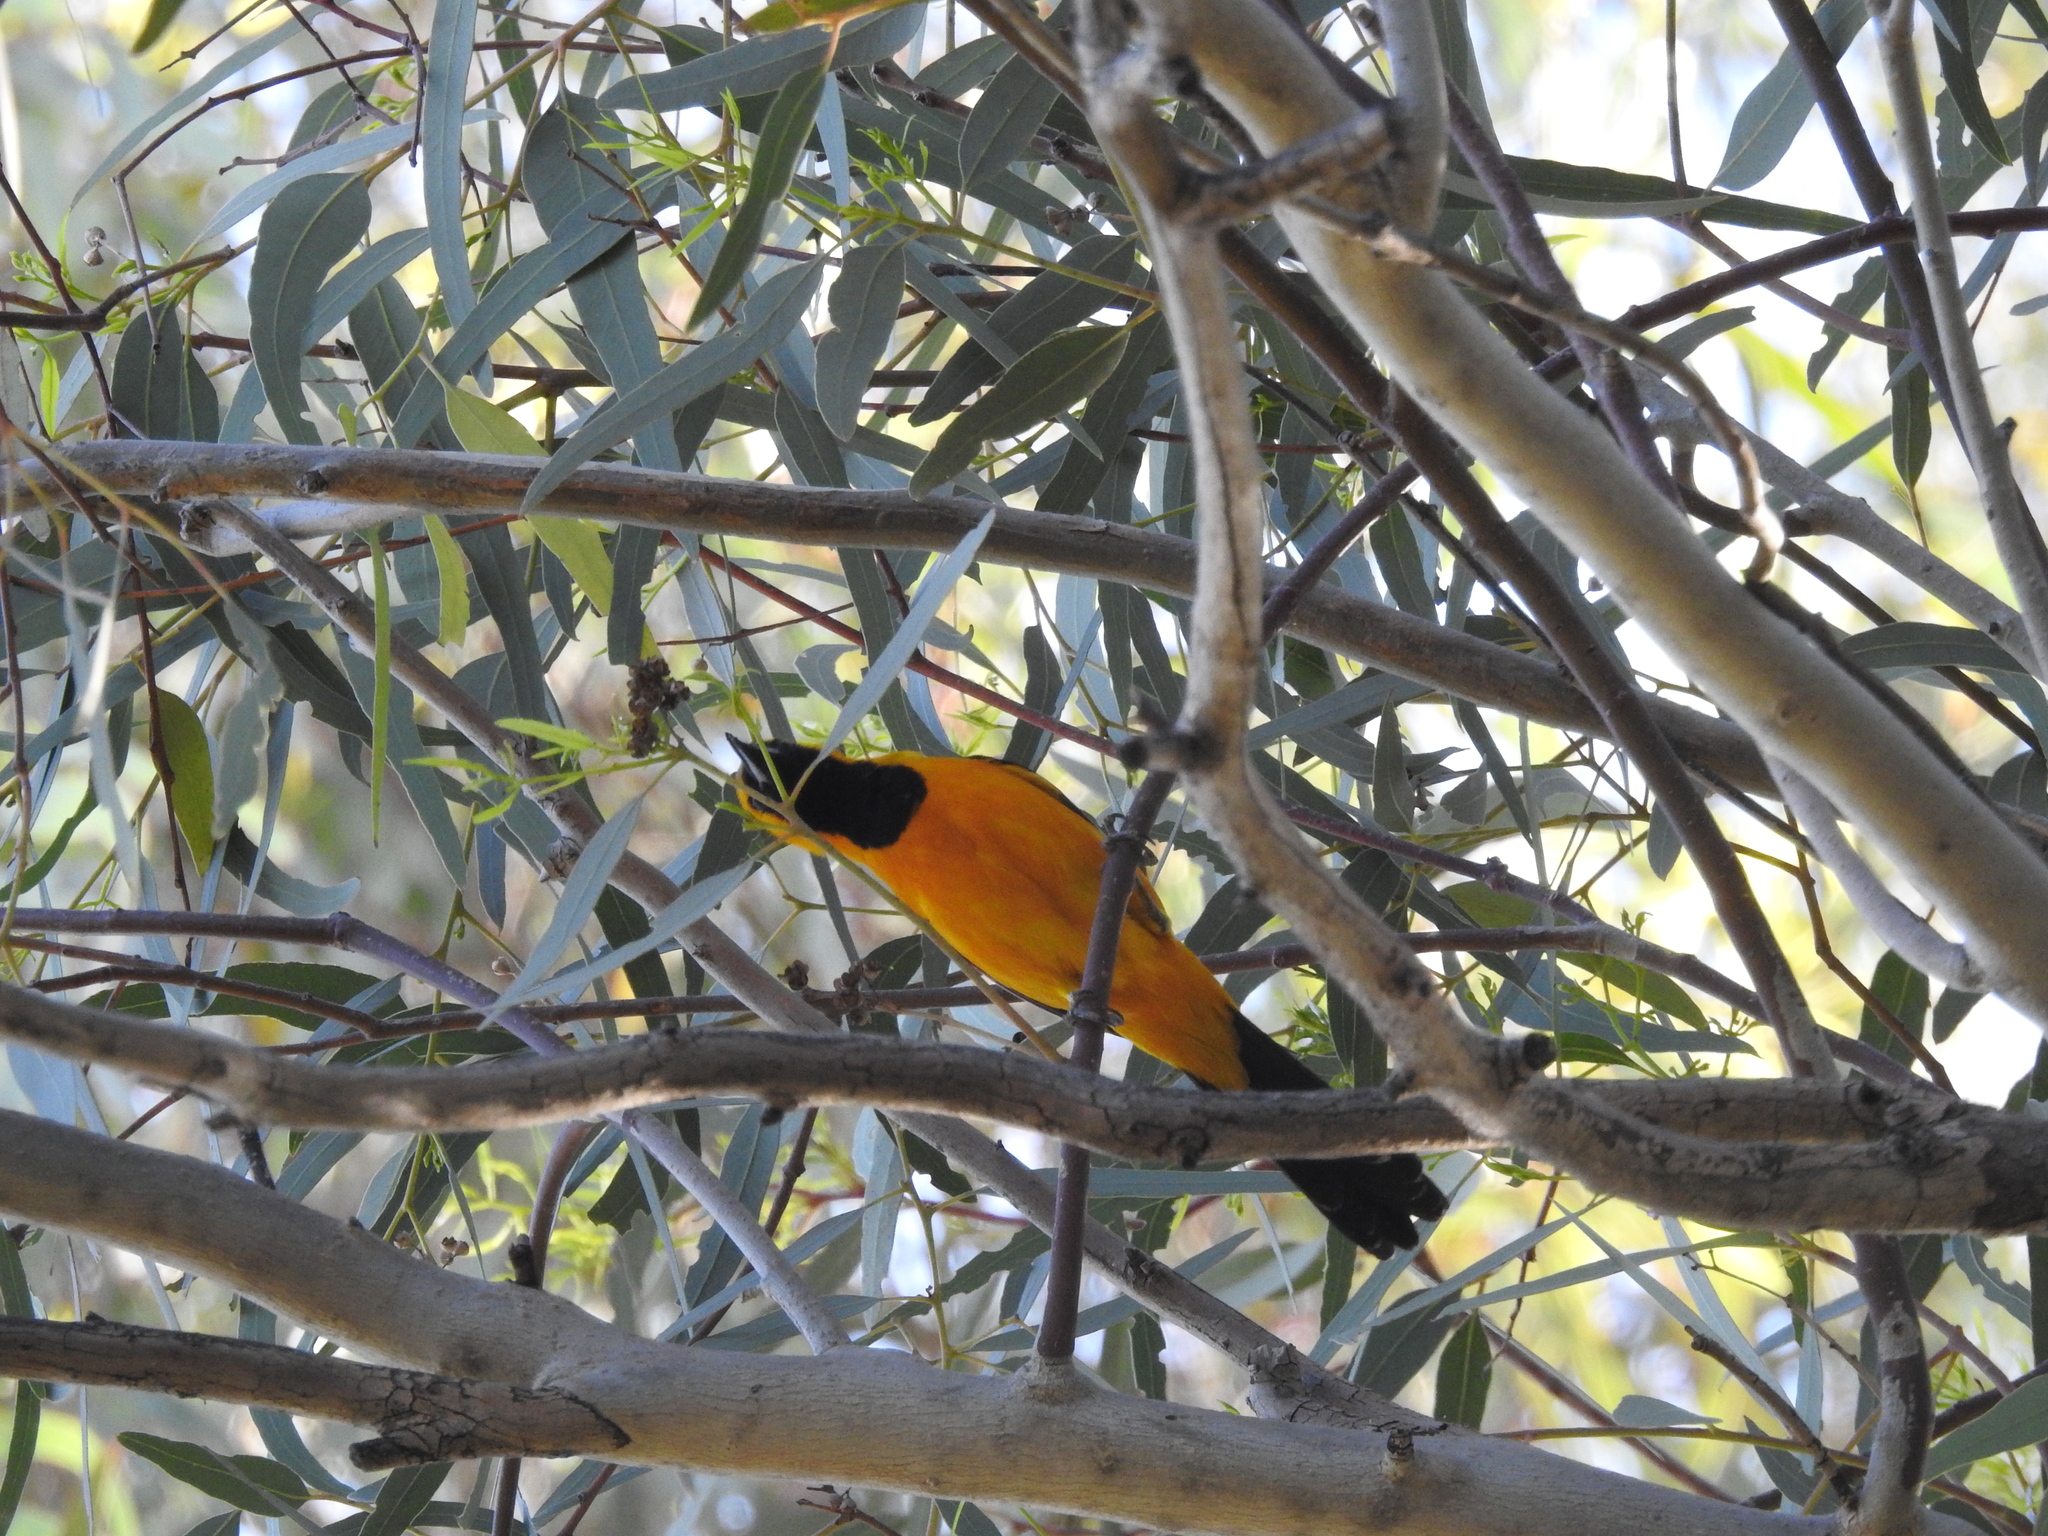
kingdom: Animalia
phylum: Chordata
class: Aves
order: Passeriformes
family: Icteridae
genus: Icterus
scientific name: Icterus cucullatus
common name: Hooded oriole
